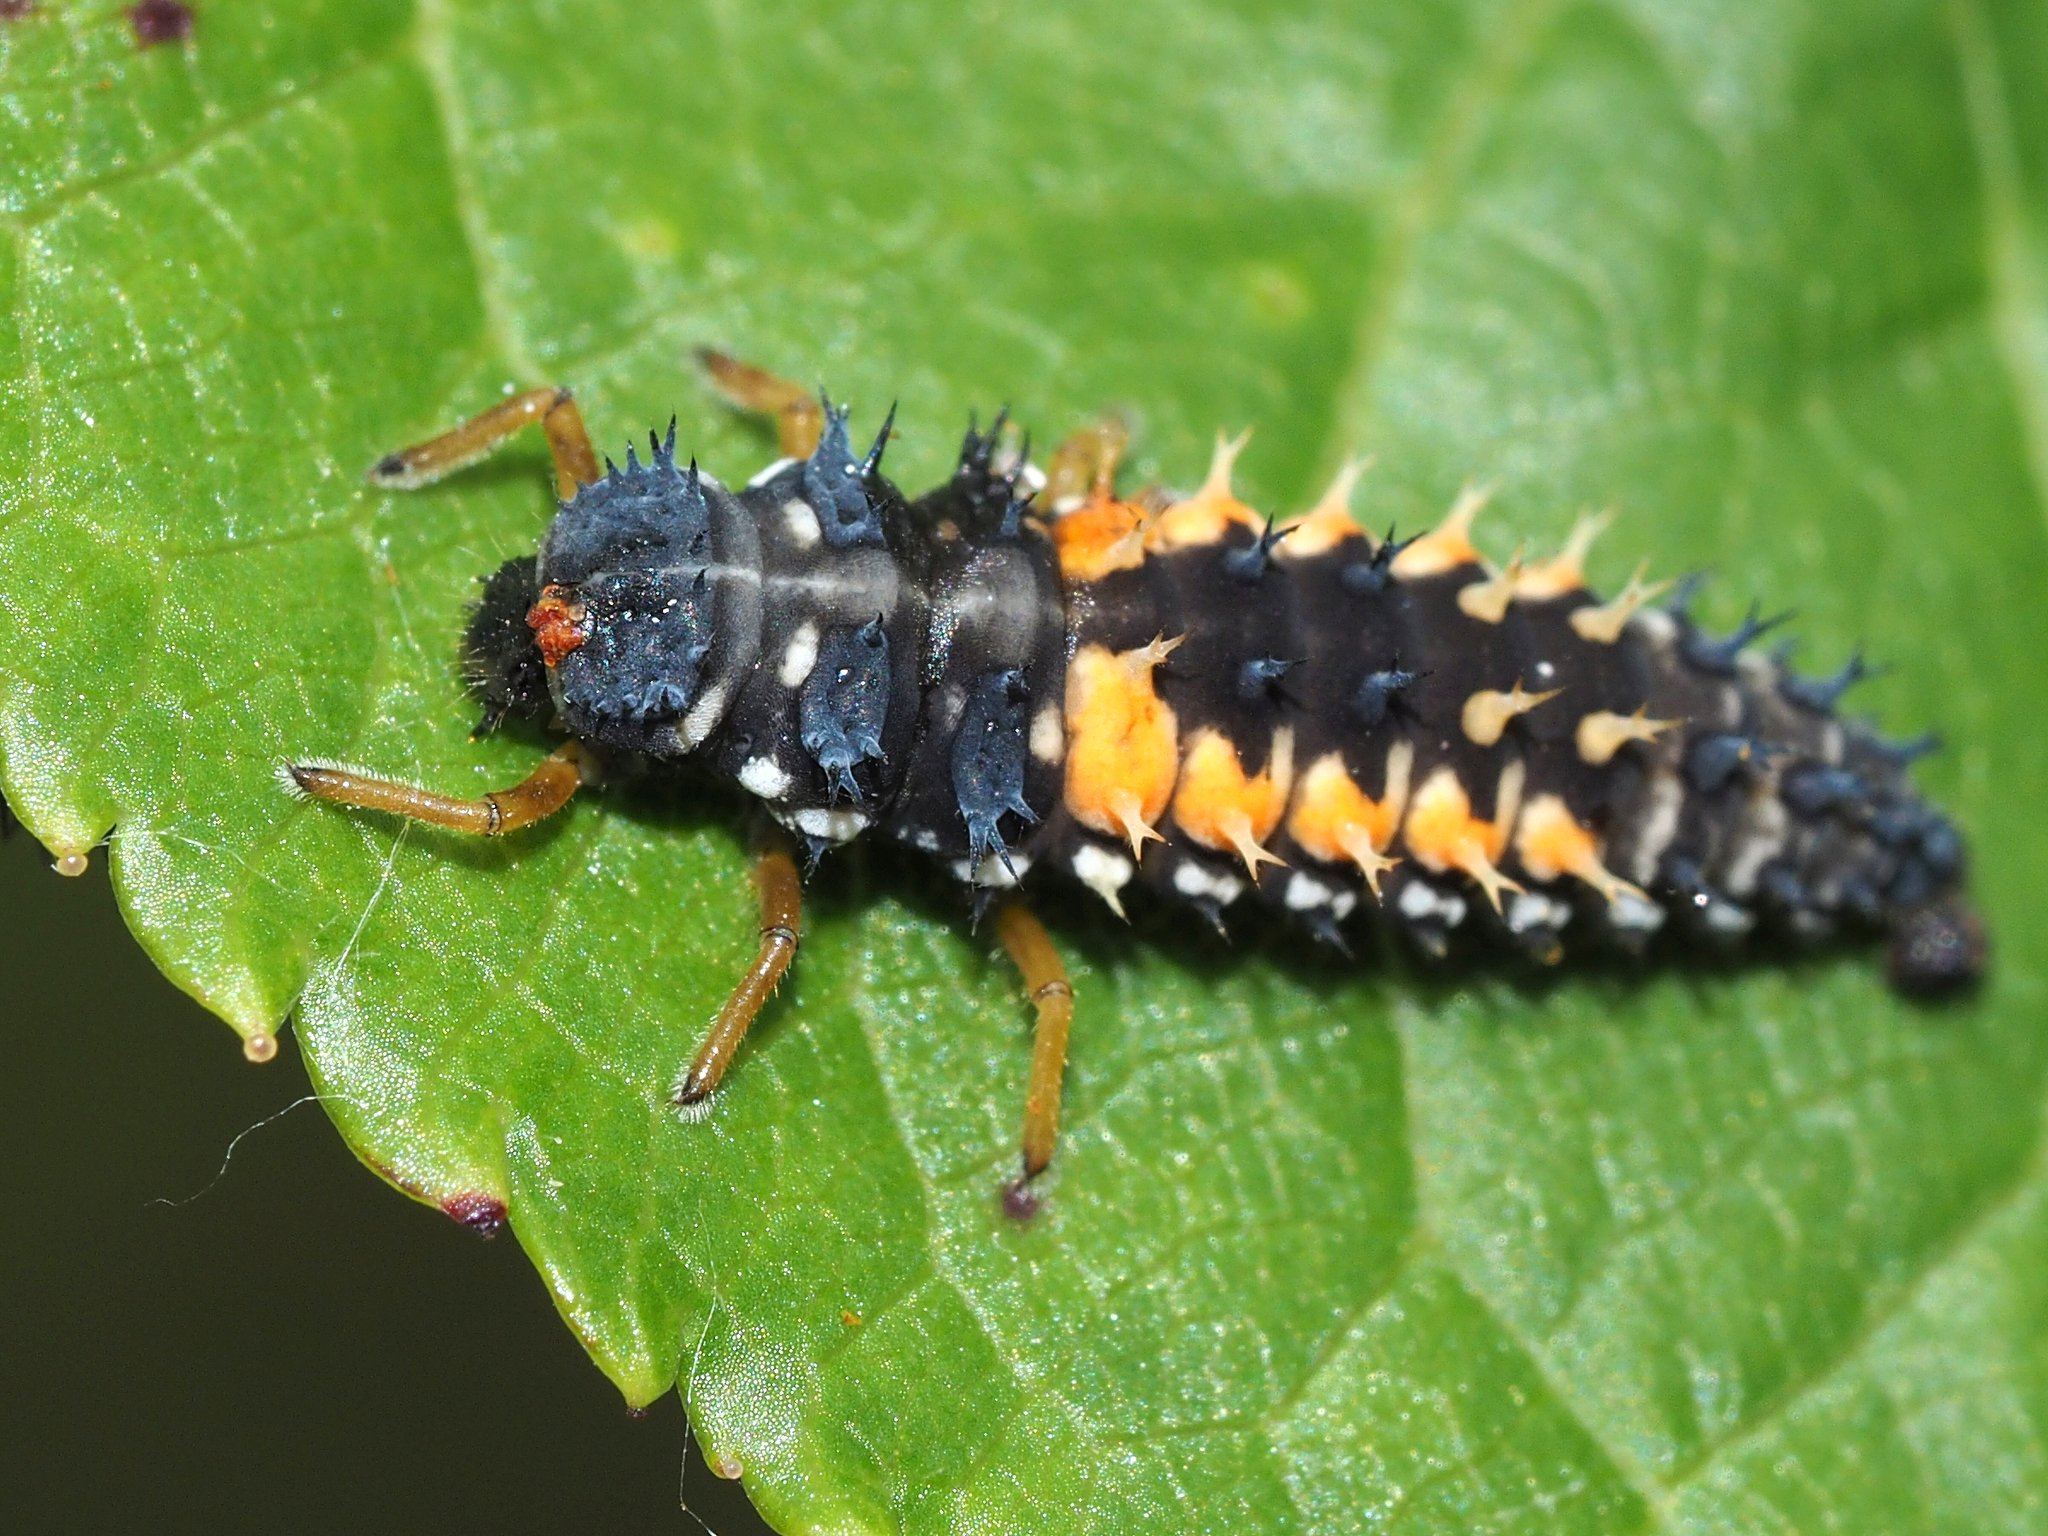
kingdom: Animalia
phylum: Arthropoda
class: Insecta
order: Coleoptera
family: Coccinellidae
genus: Harmonia
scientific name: Harmonia axyridis
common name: Harlequin ladybird
